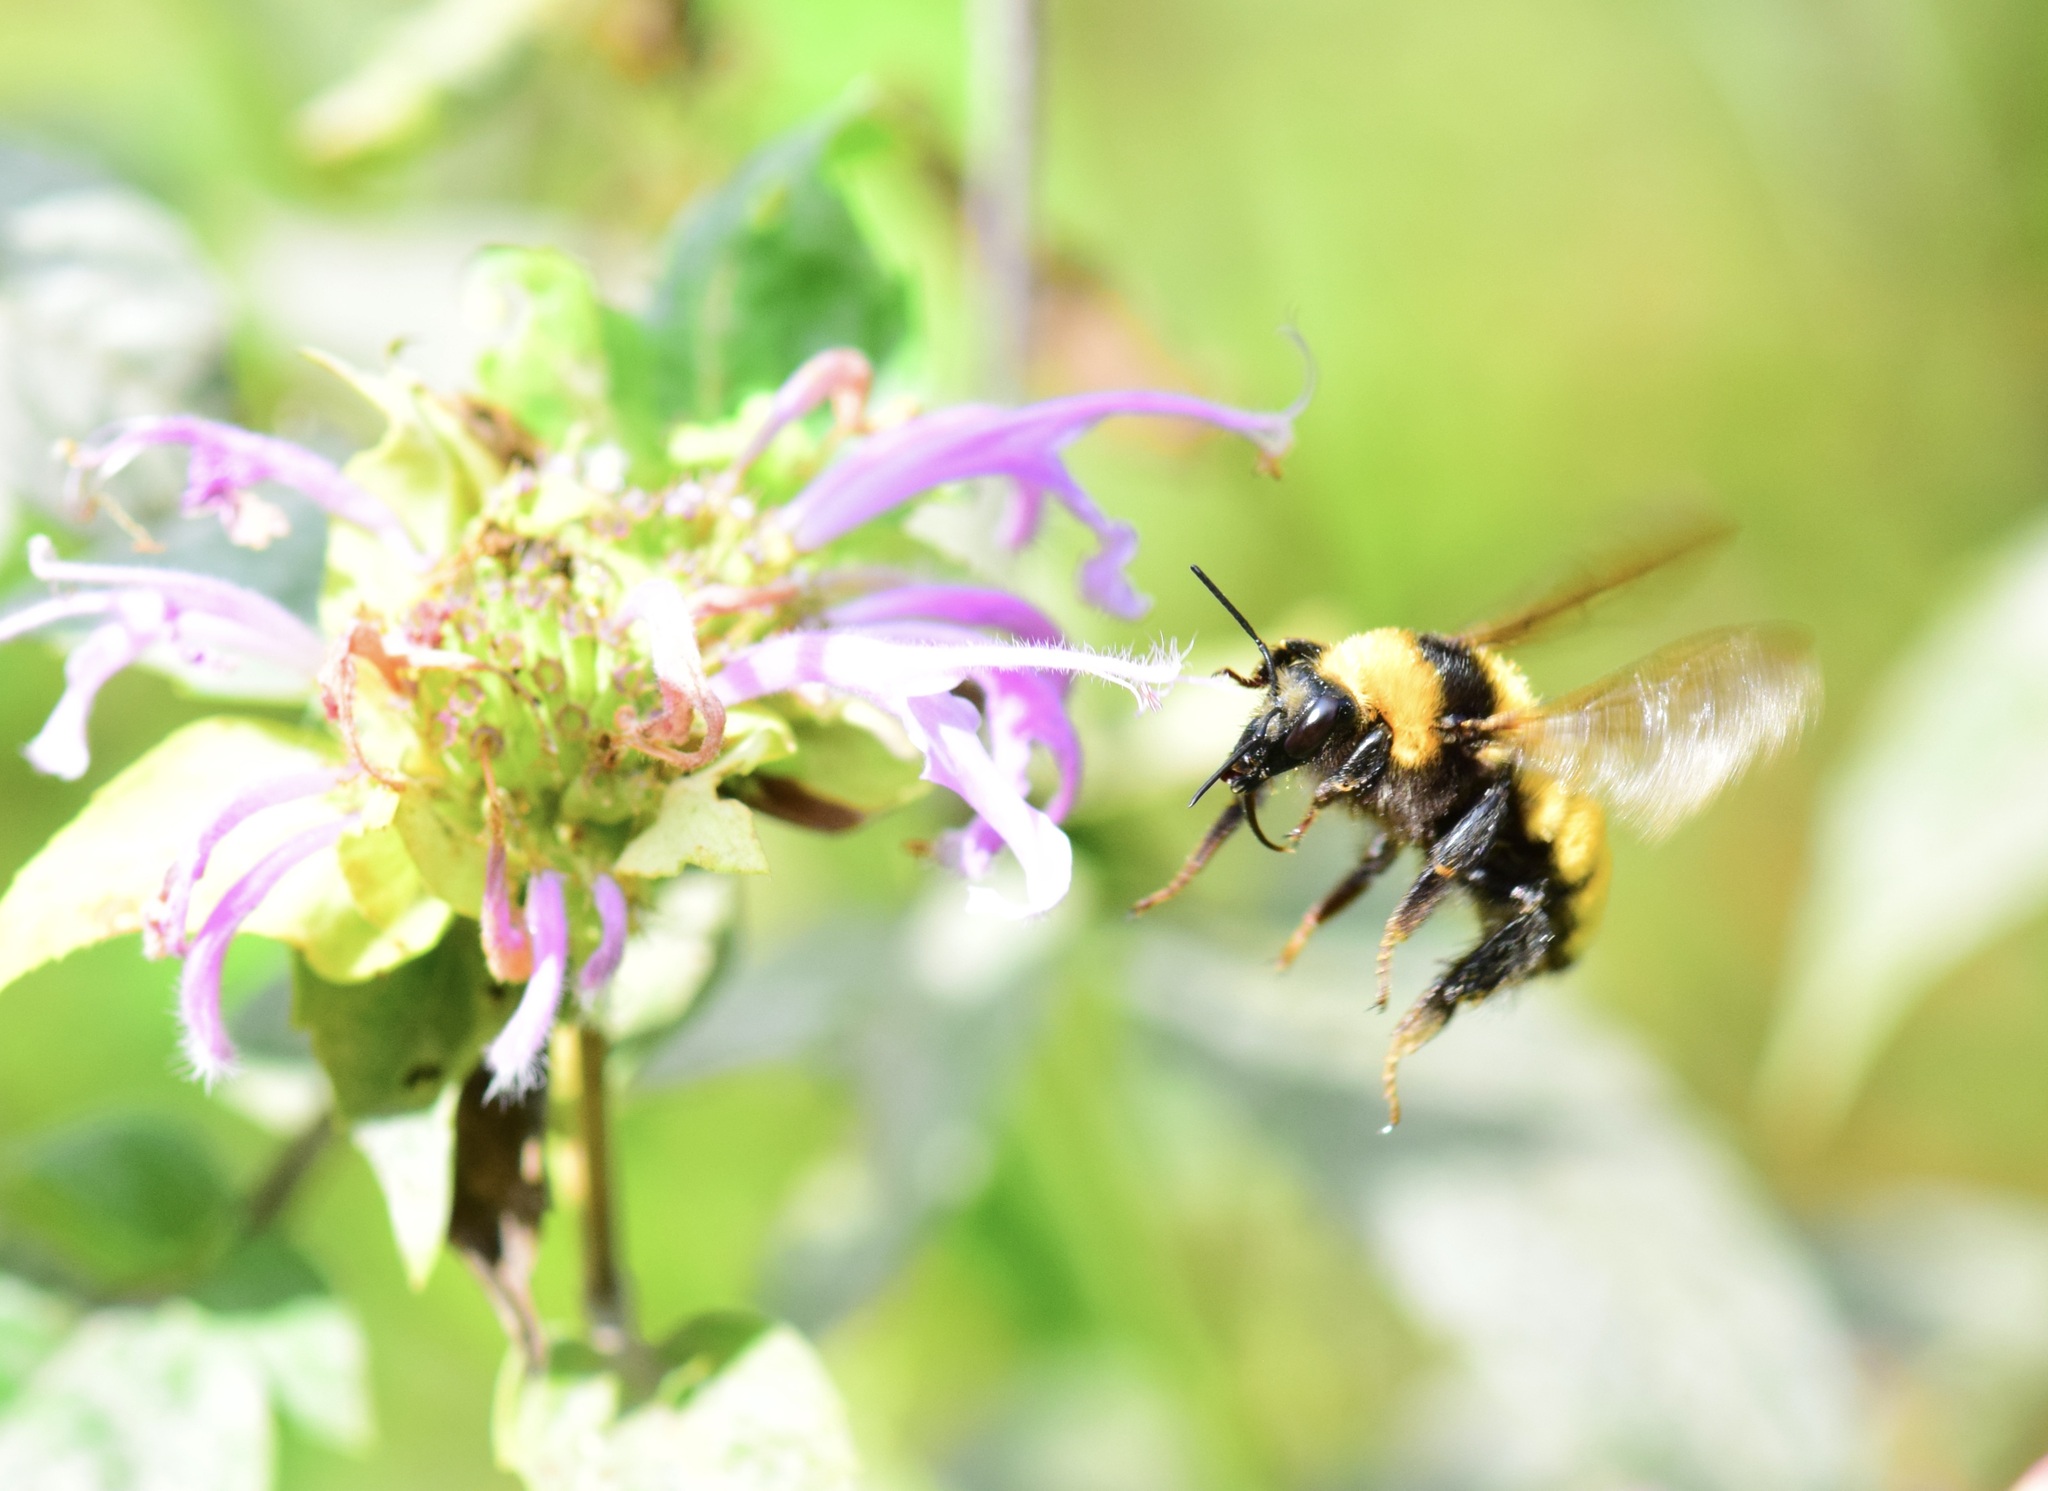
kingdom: Animalia
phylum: Arthropoda
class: Insecta
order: Hymenoptera
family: Apidae
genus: Bombus
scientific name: Bombus borealis
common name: Northern amber bumble bee
